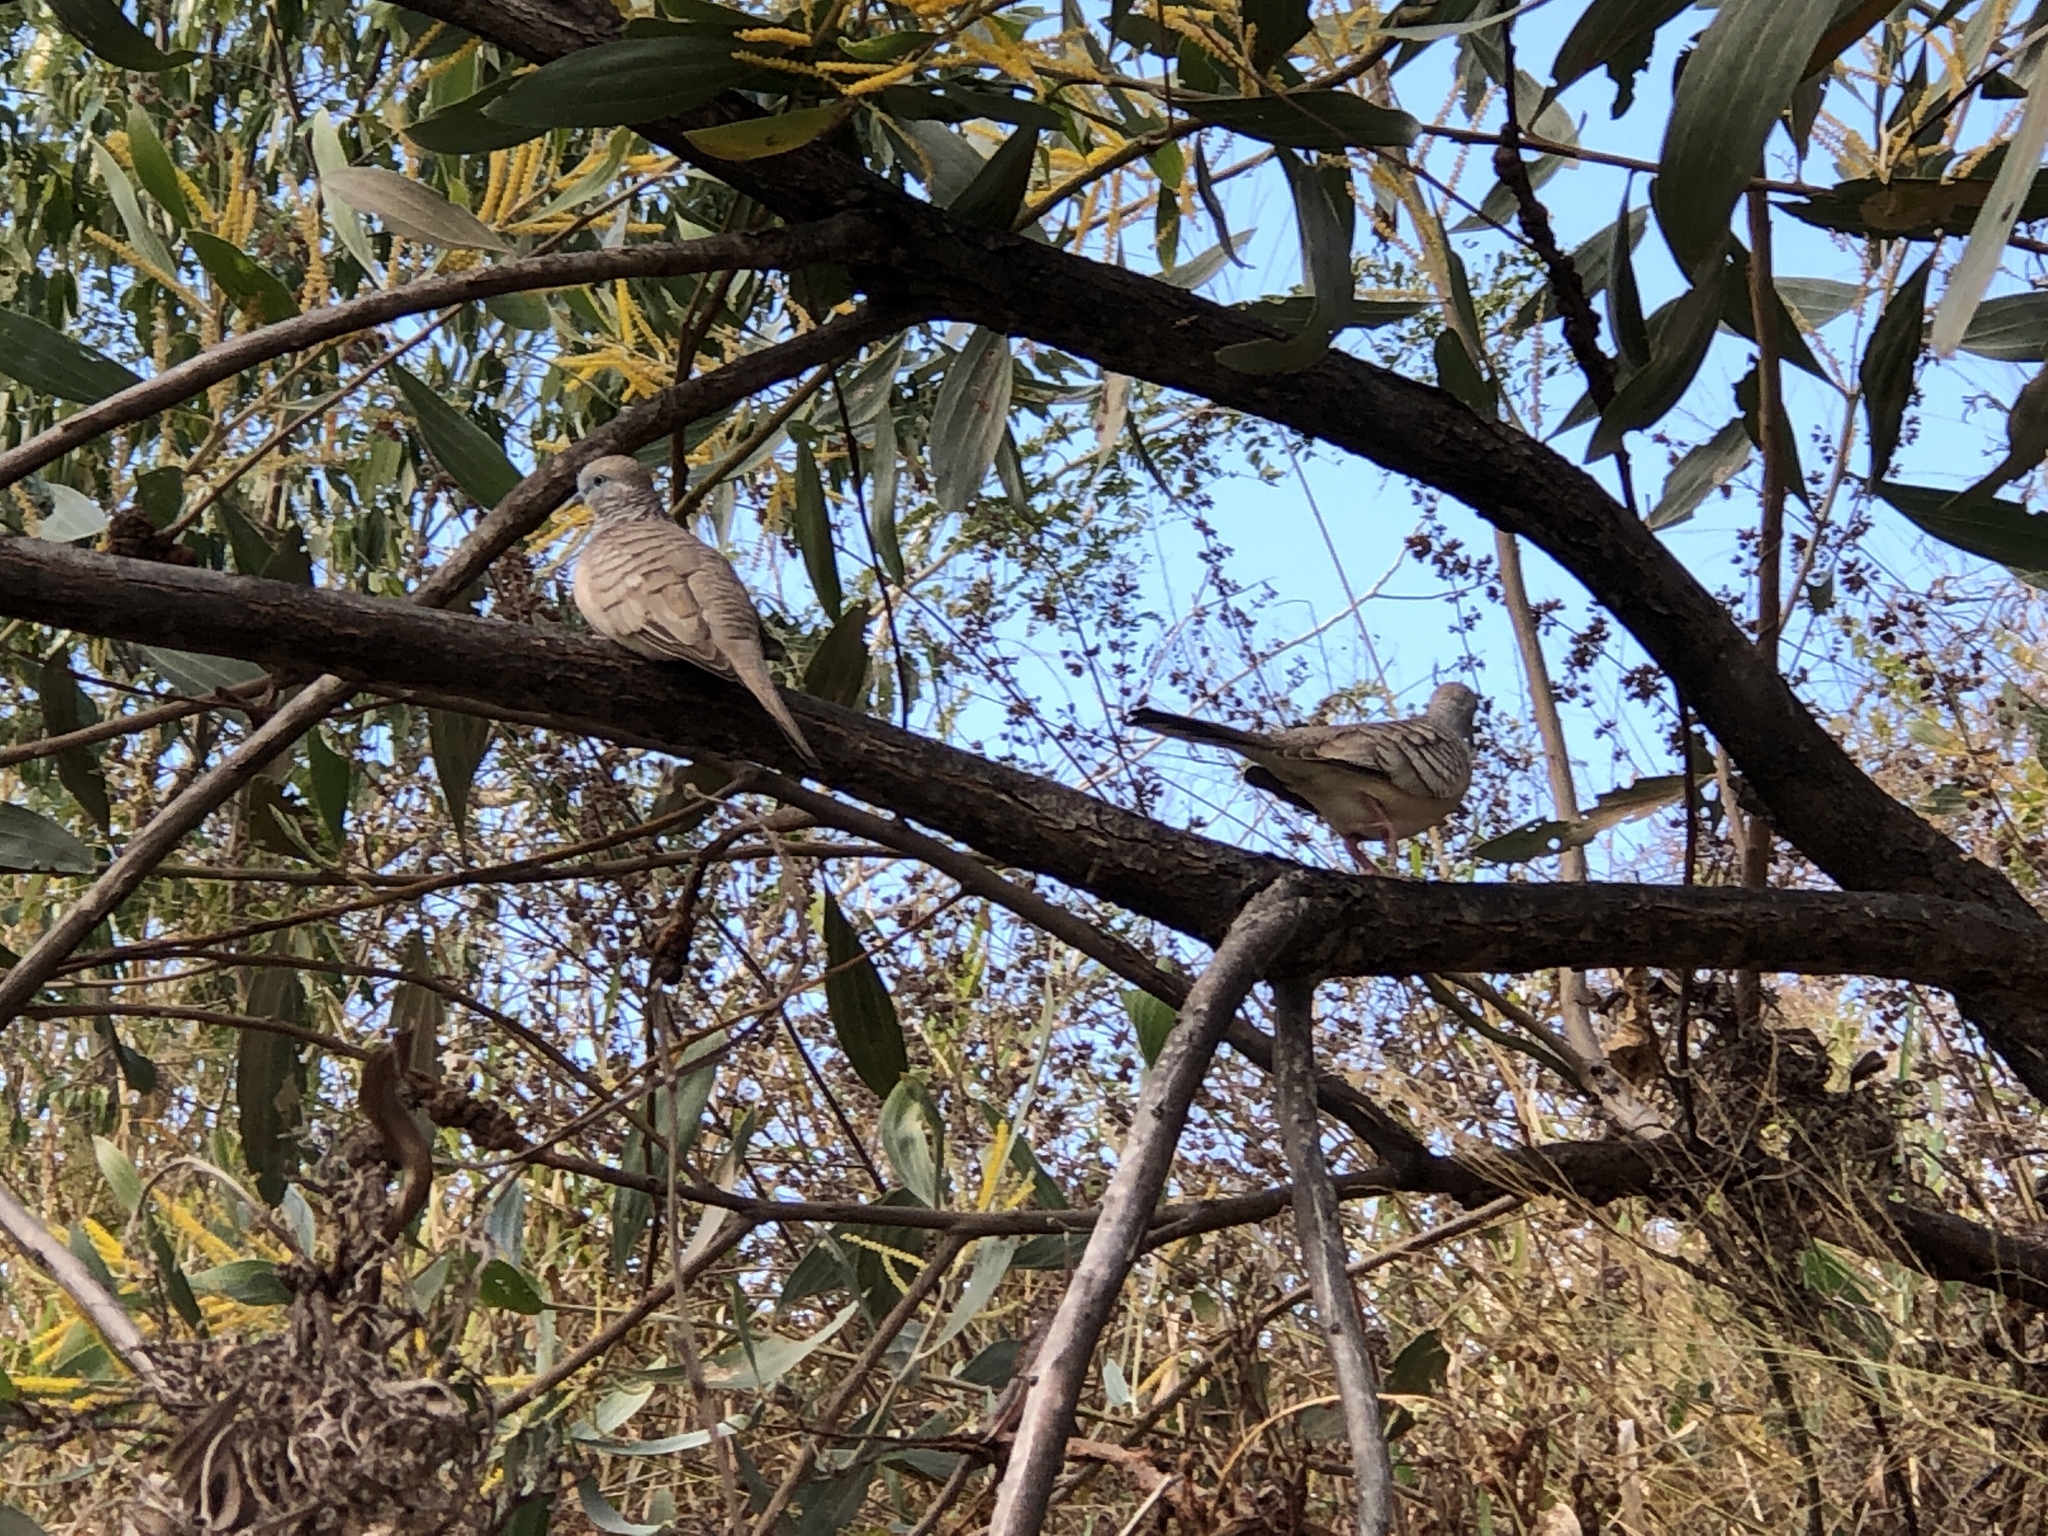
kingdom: Animalia
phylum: Chordata
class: Aves
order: Columbiformes
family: Columbidae
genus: Geopelia
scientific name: Geopelia placida
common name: Peaceful dove
